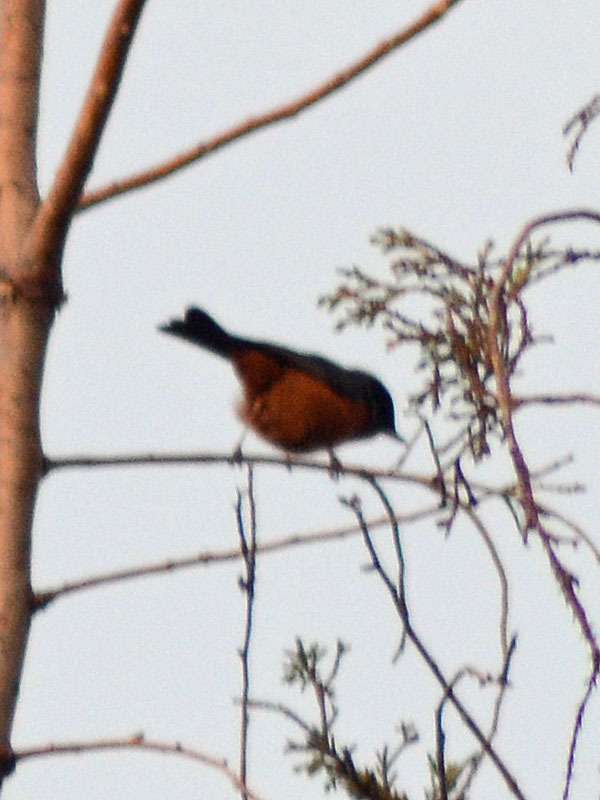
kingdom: Animalia
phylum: Chordata
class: Aves
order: Passeriformes
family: Thraupidae
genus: Diglossa
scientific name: Diglossa baritula
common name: Cinnamon-bellied flowerpiercer
